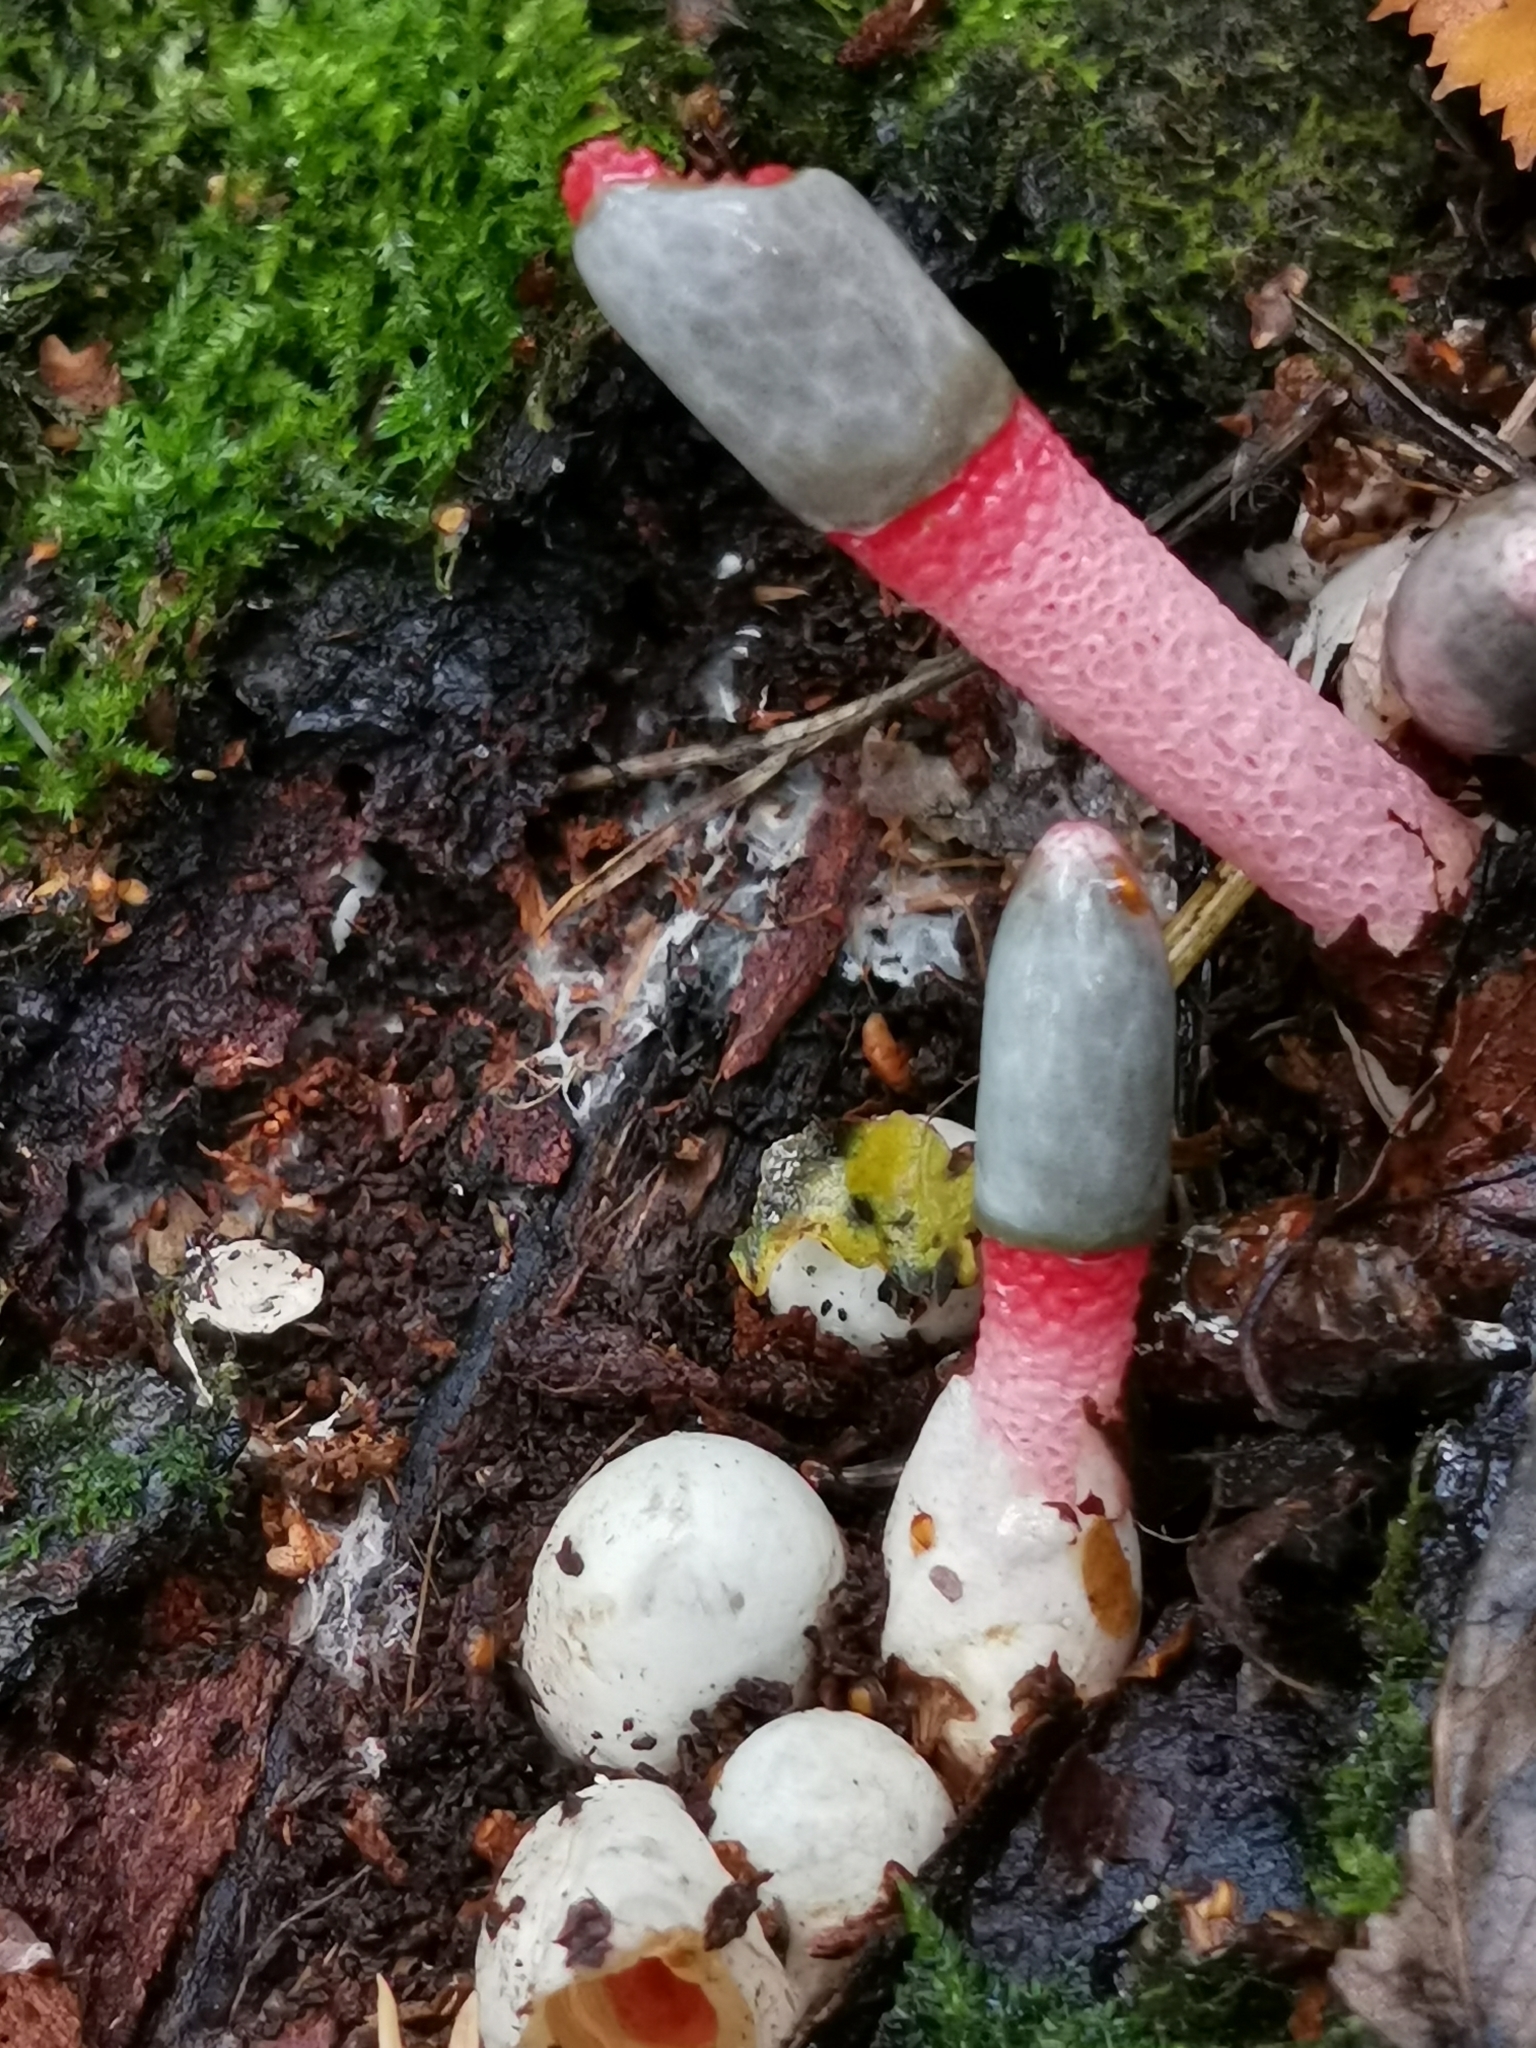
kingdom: Fungi
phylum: Basidiomycota
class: Agaricomycetes
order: Phallales
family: Phallaceae
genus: Mutinus
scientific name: Mutinus ravenelii
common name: Red stinkhorn
